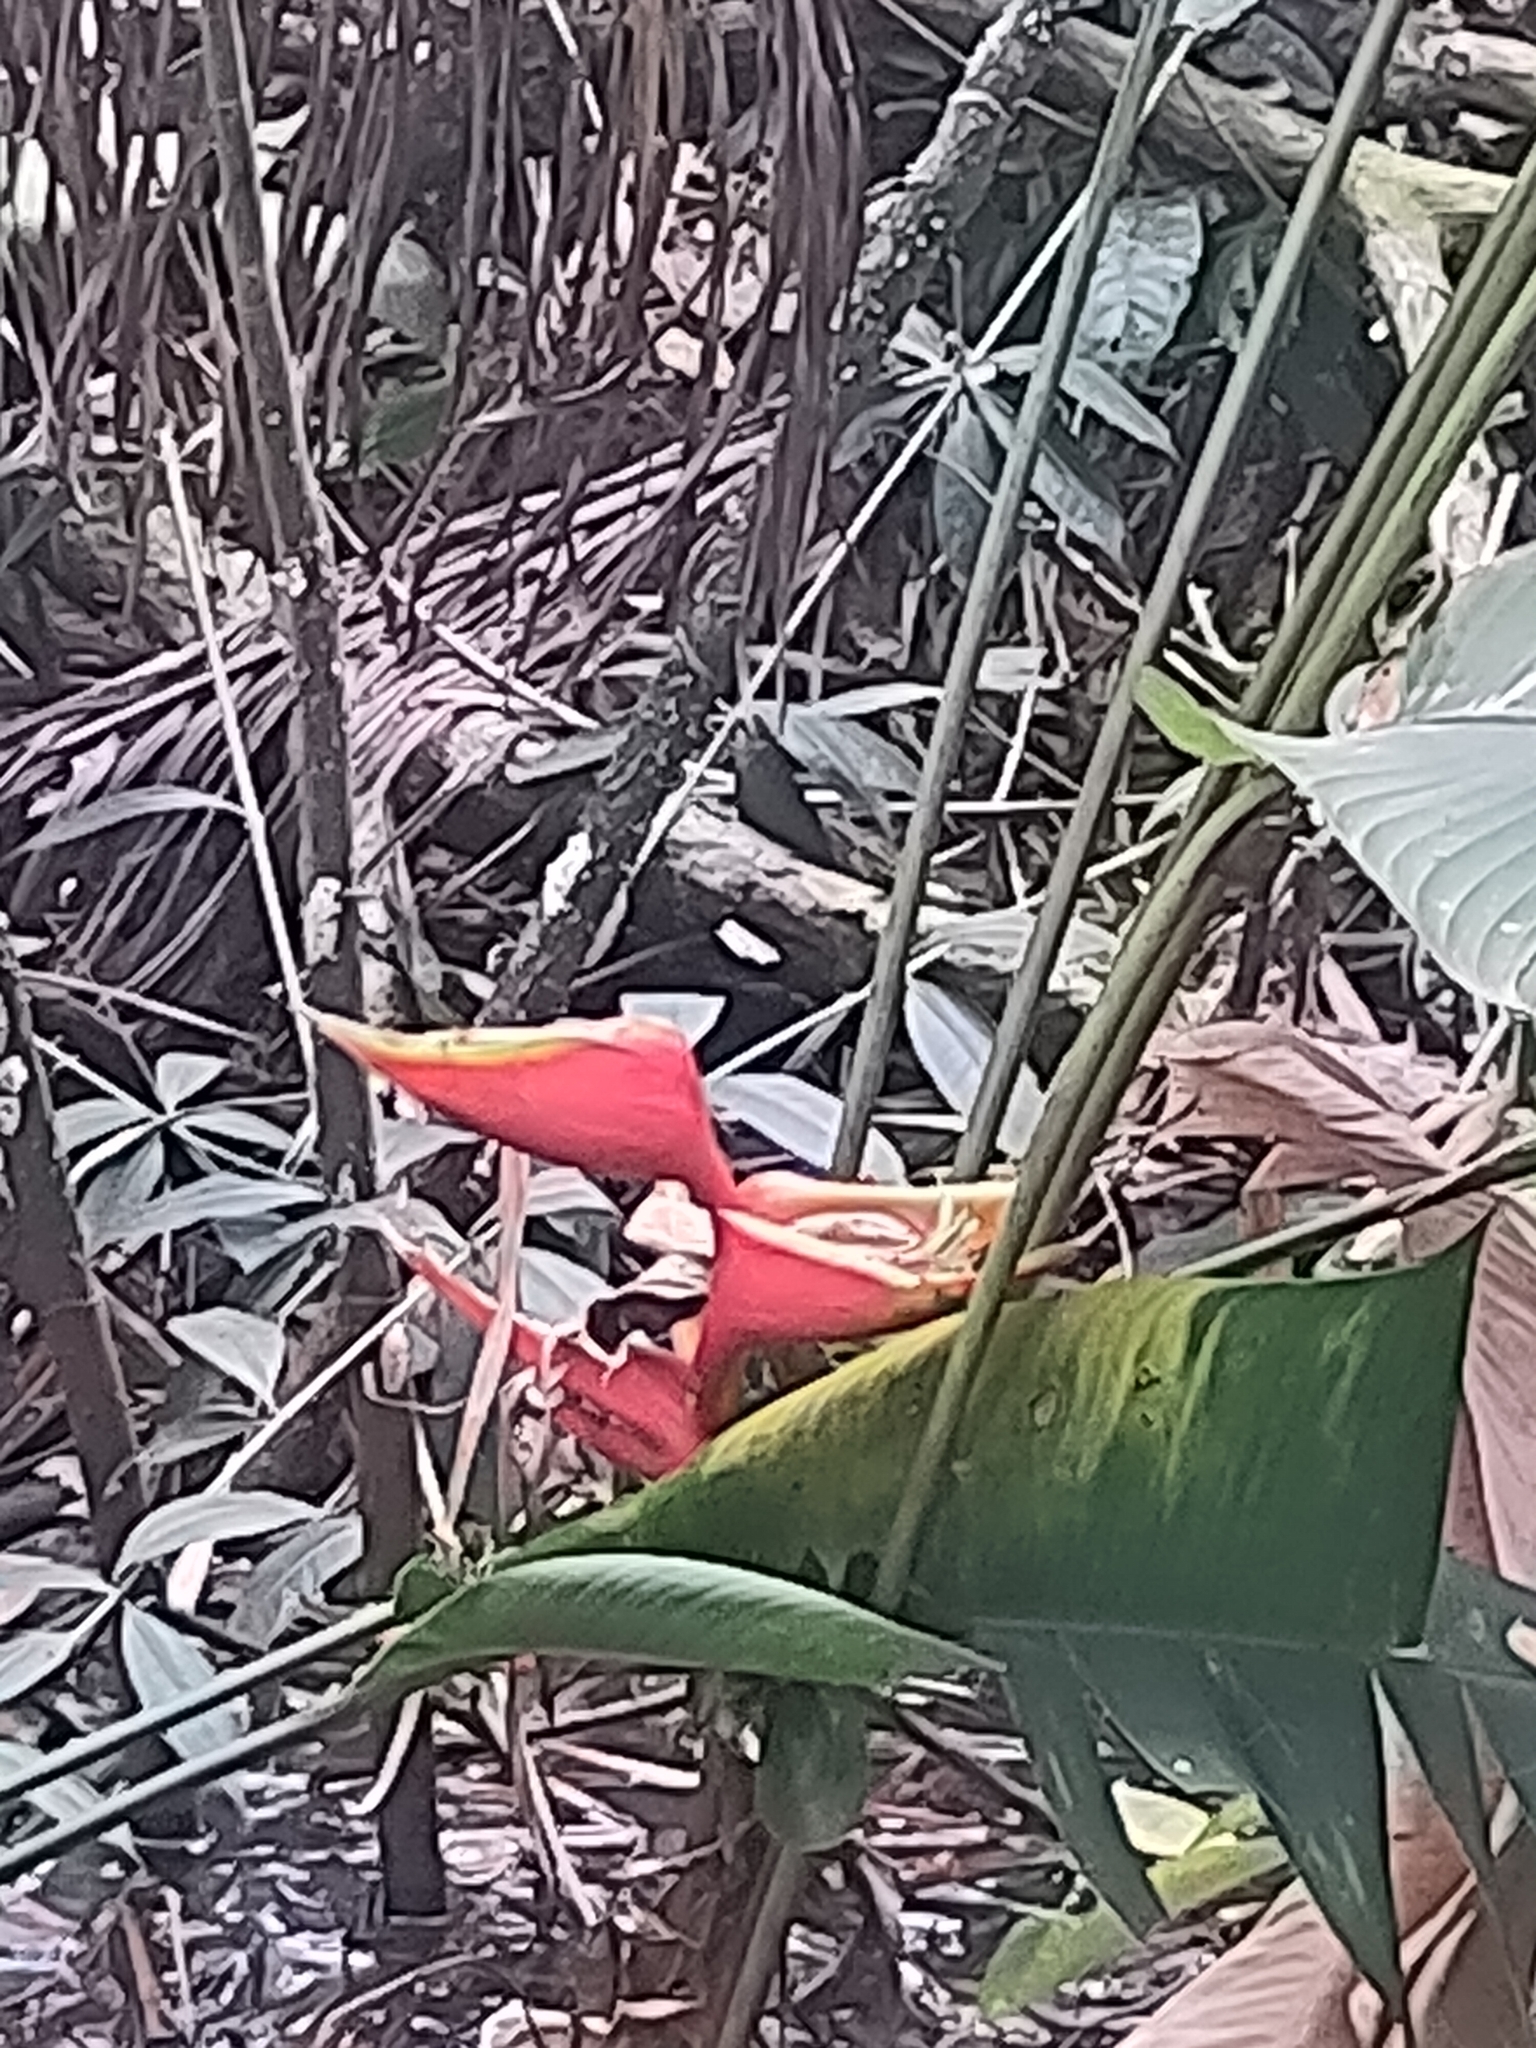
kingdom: Plantae
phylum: Tracheophyta
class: Liliopsida
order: Zingiberales
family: Heliconiaceae
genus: Heliconia
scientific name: Heliconia bihai
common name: Macaw flower
